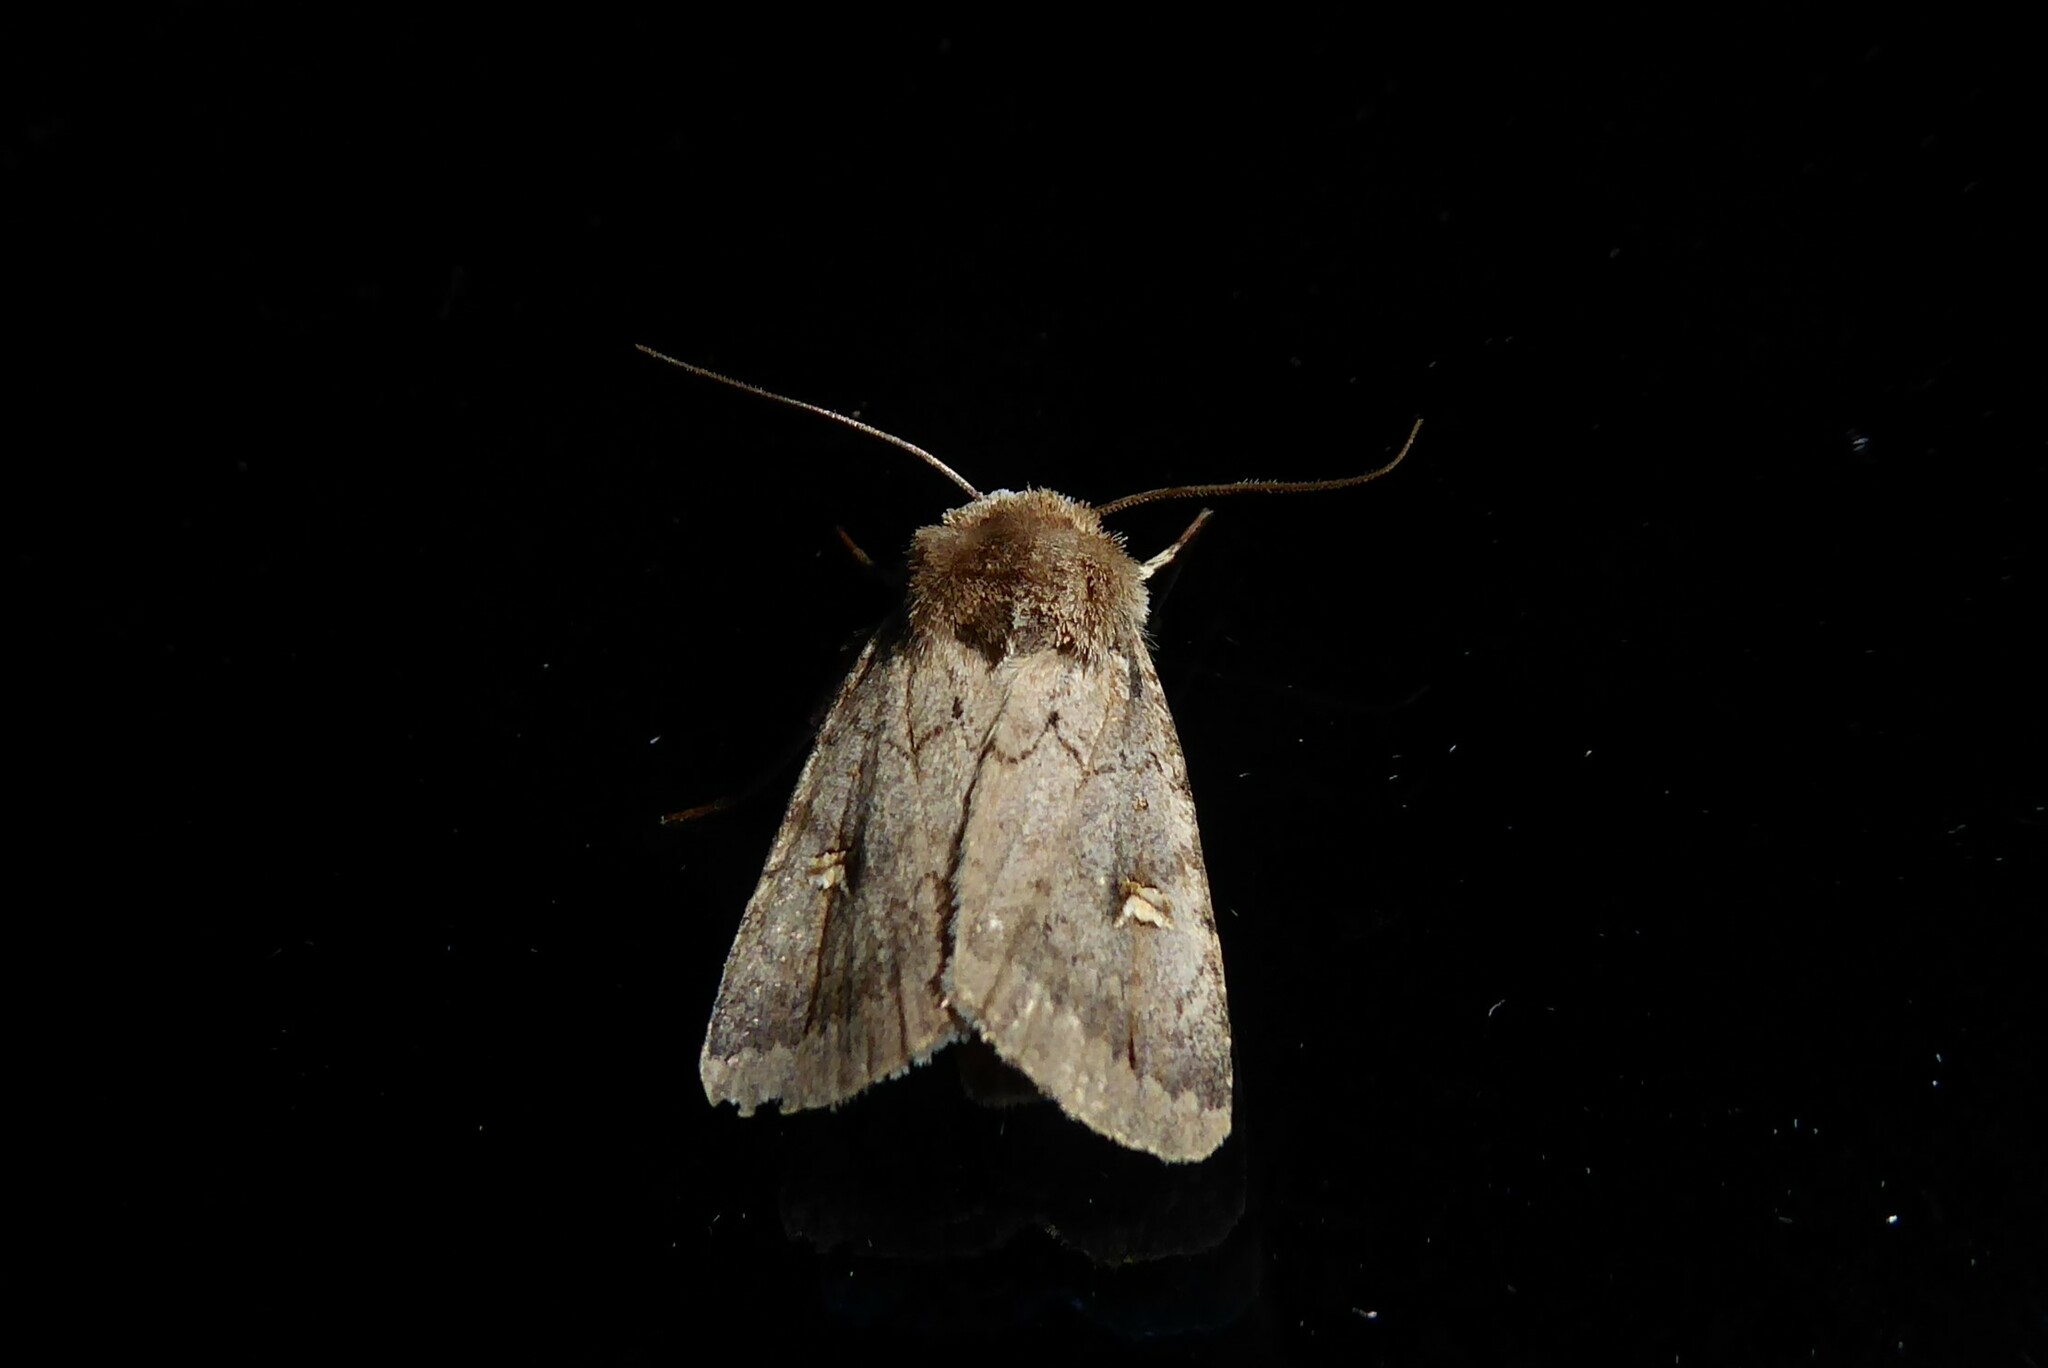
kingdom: Animalia
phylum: Arthropoda
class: Insecta
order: Lepidoptera
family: Noctuidae
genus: Proteuxoa
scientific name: Proteuxoa tetronycha
